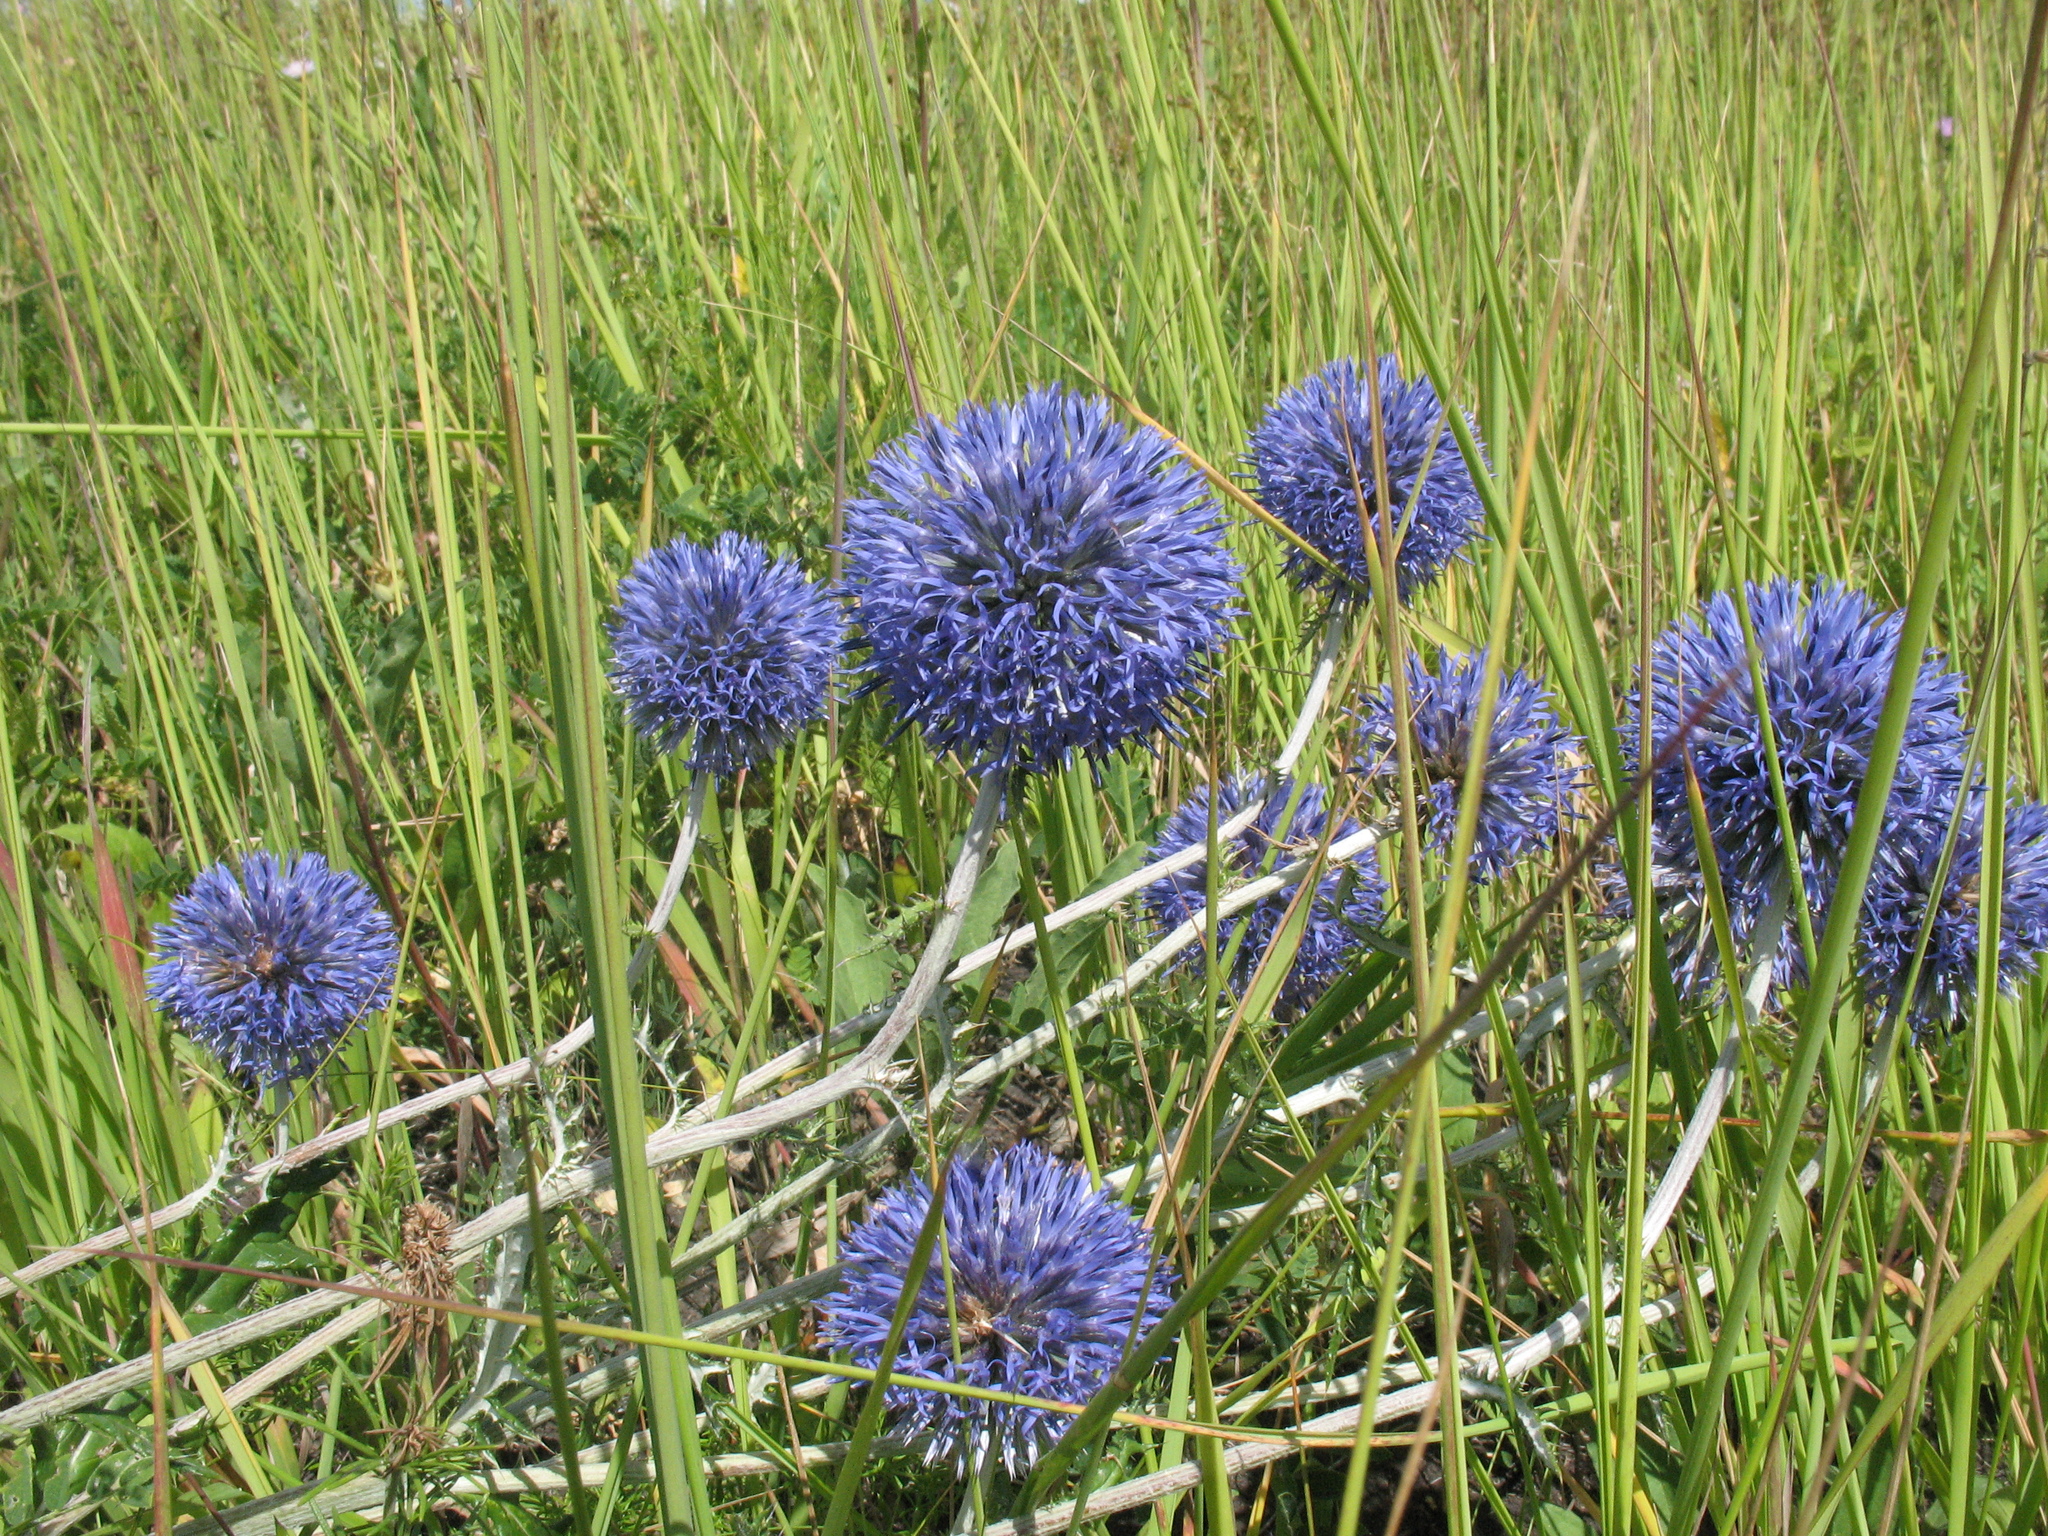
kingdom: Plantae
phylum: Tracheophyta
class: Magnoliopsida
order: Asterales
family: Asteraceae
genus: Echinops
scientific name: Echinops ritro
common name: Globe thistle
